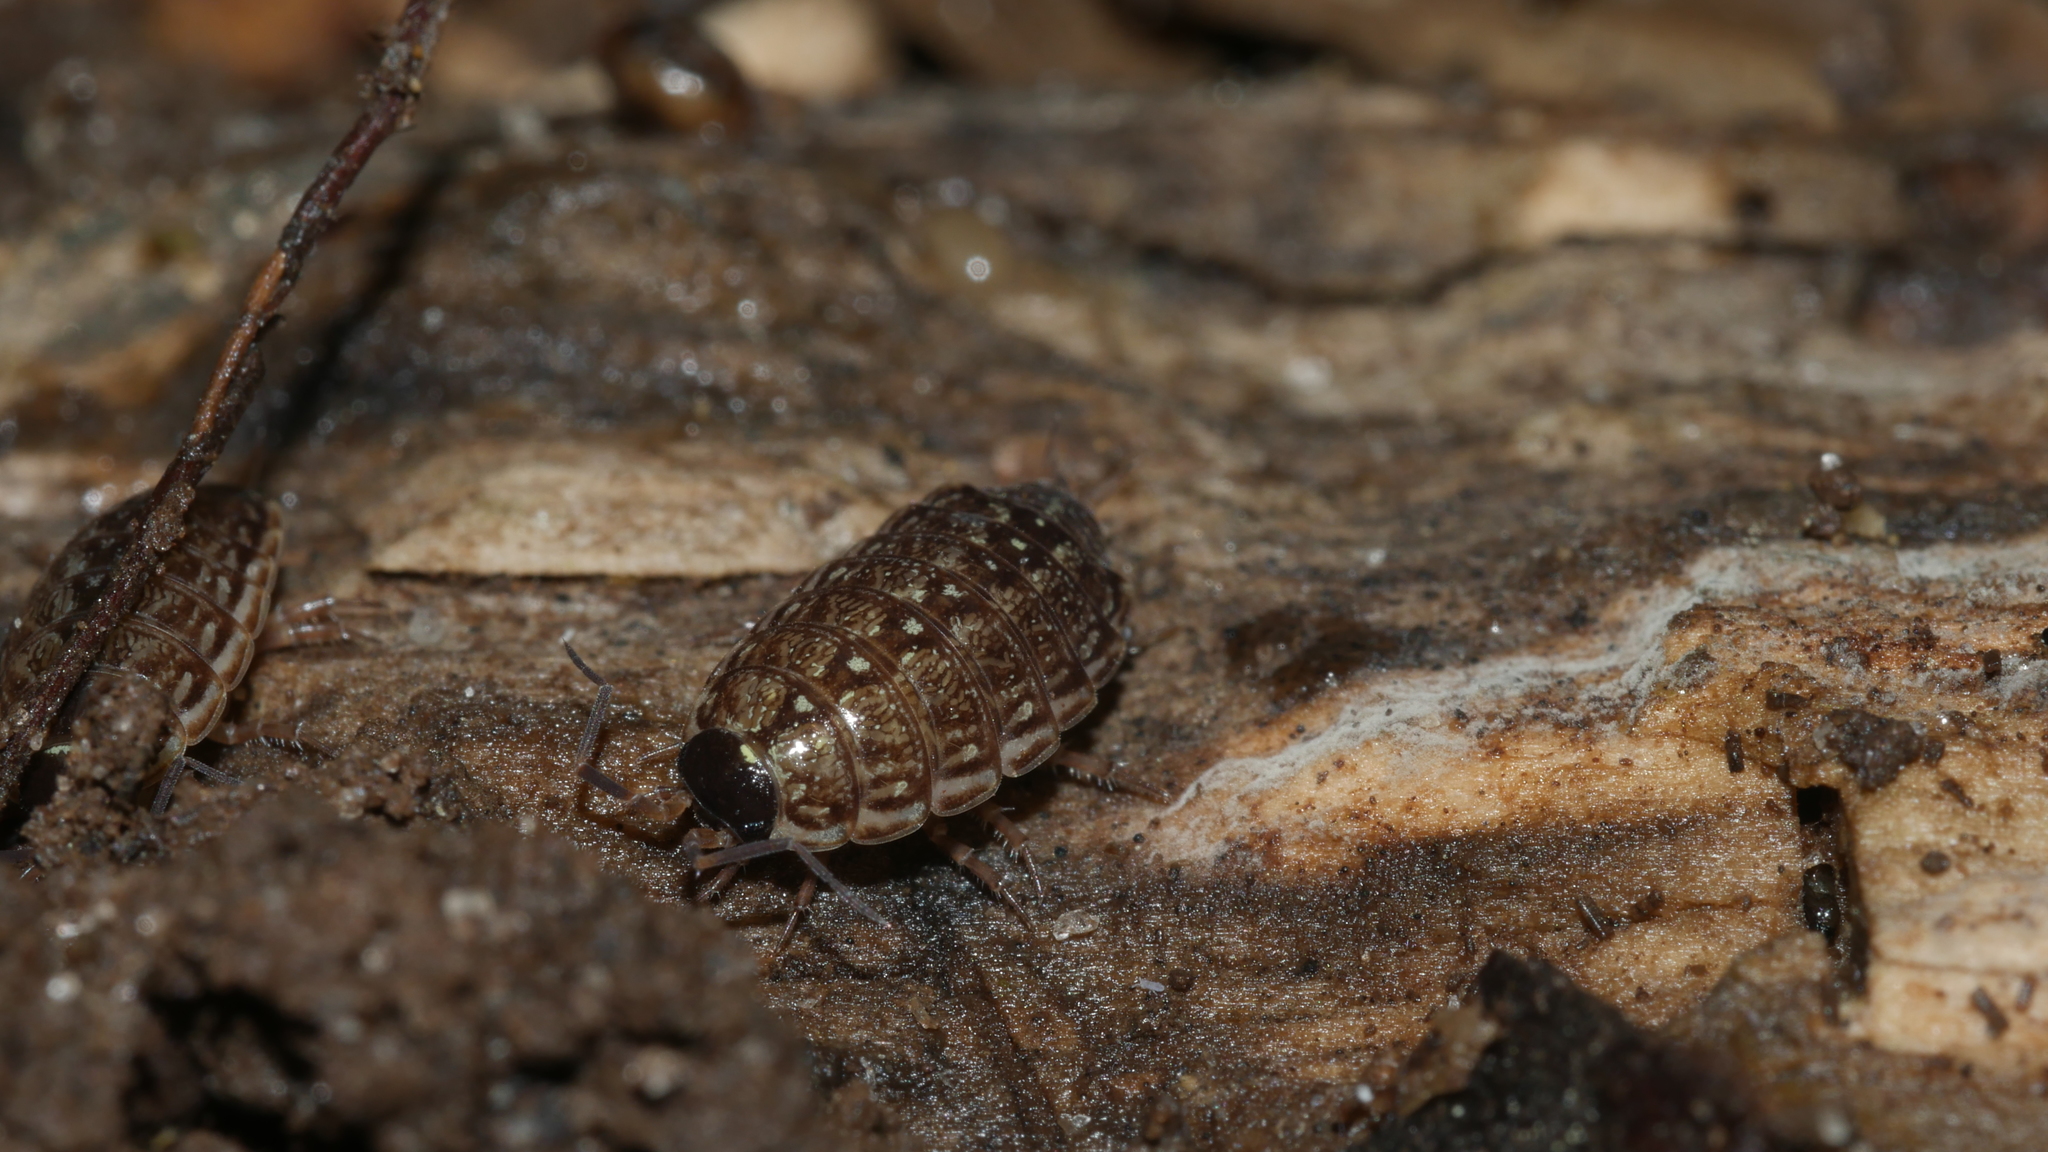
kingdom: Animalia
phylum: Arthropoda
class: Malacostraca
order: Isopoda
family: Philosciidae
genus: Philoscia
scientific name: Philoscia muscorum
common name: Common striped woodlouse
